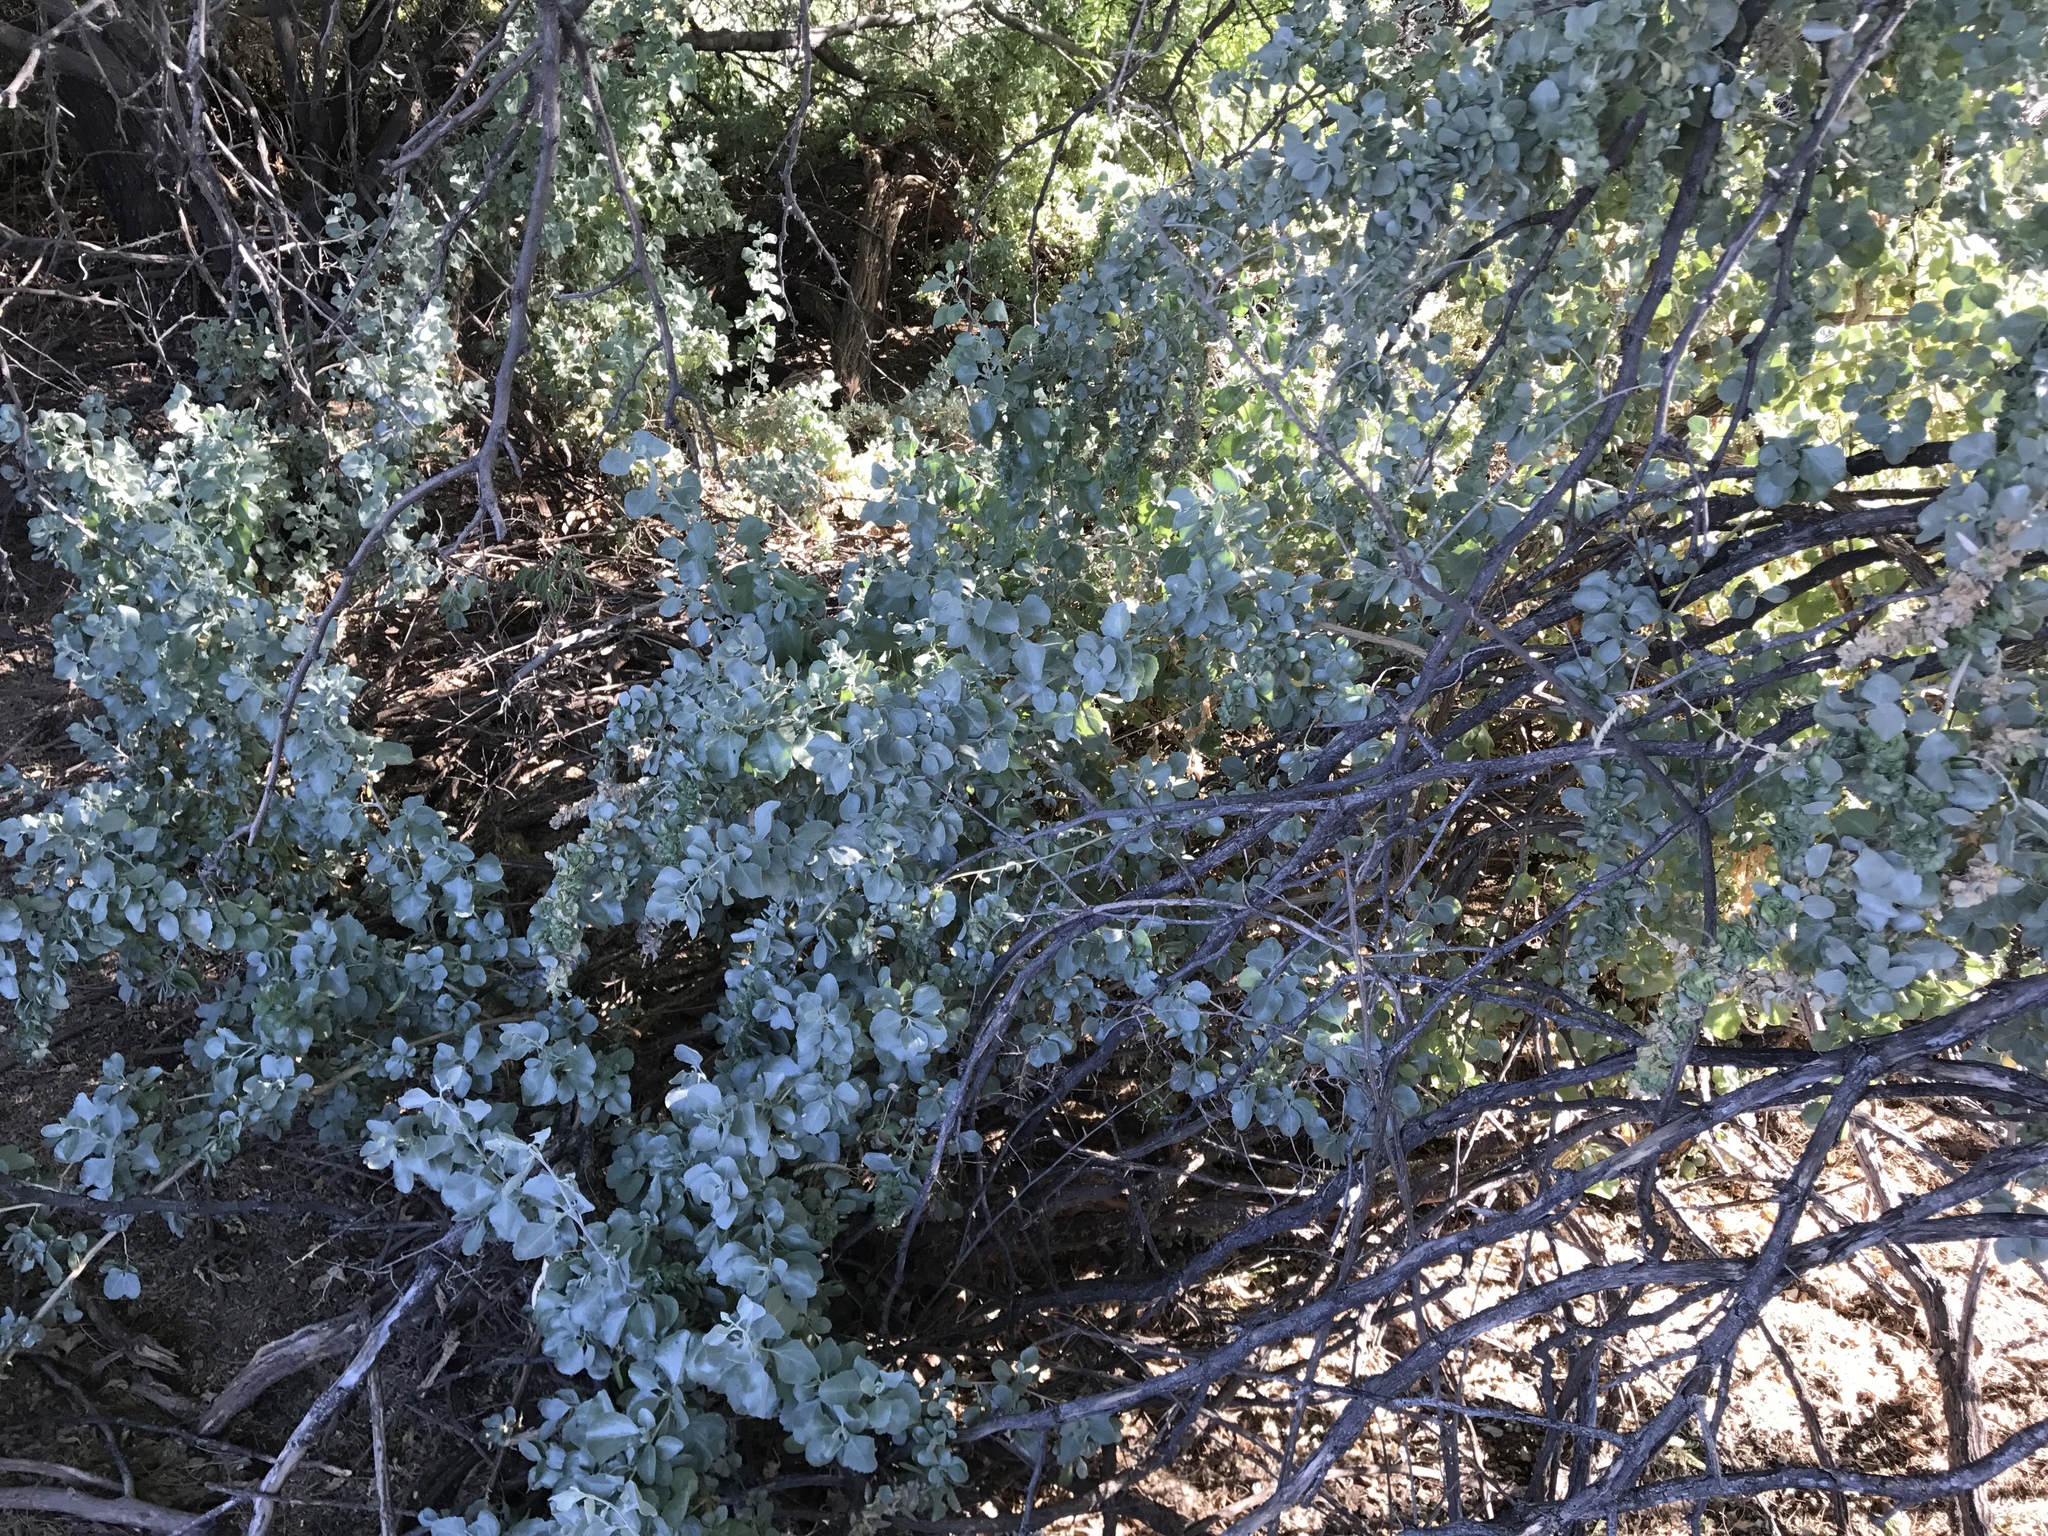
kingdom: Plantae
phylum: Tracheophyta
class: Magnoliopsida
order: Caryophyllales
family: Amaranthaceae
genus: Atriplex
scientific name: Atriplex canescens
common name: Four-wing saltbush
